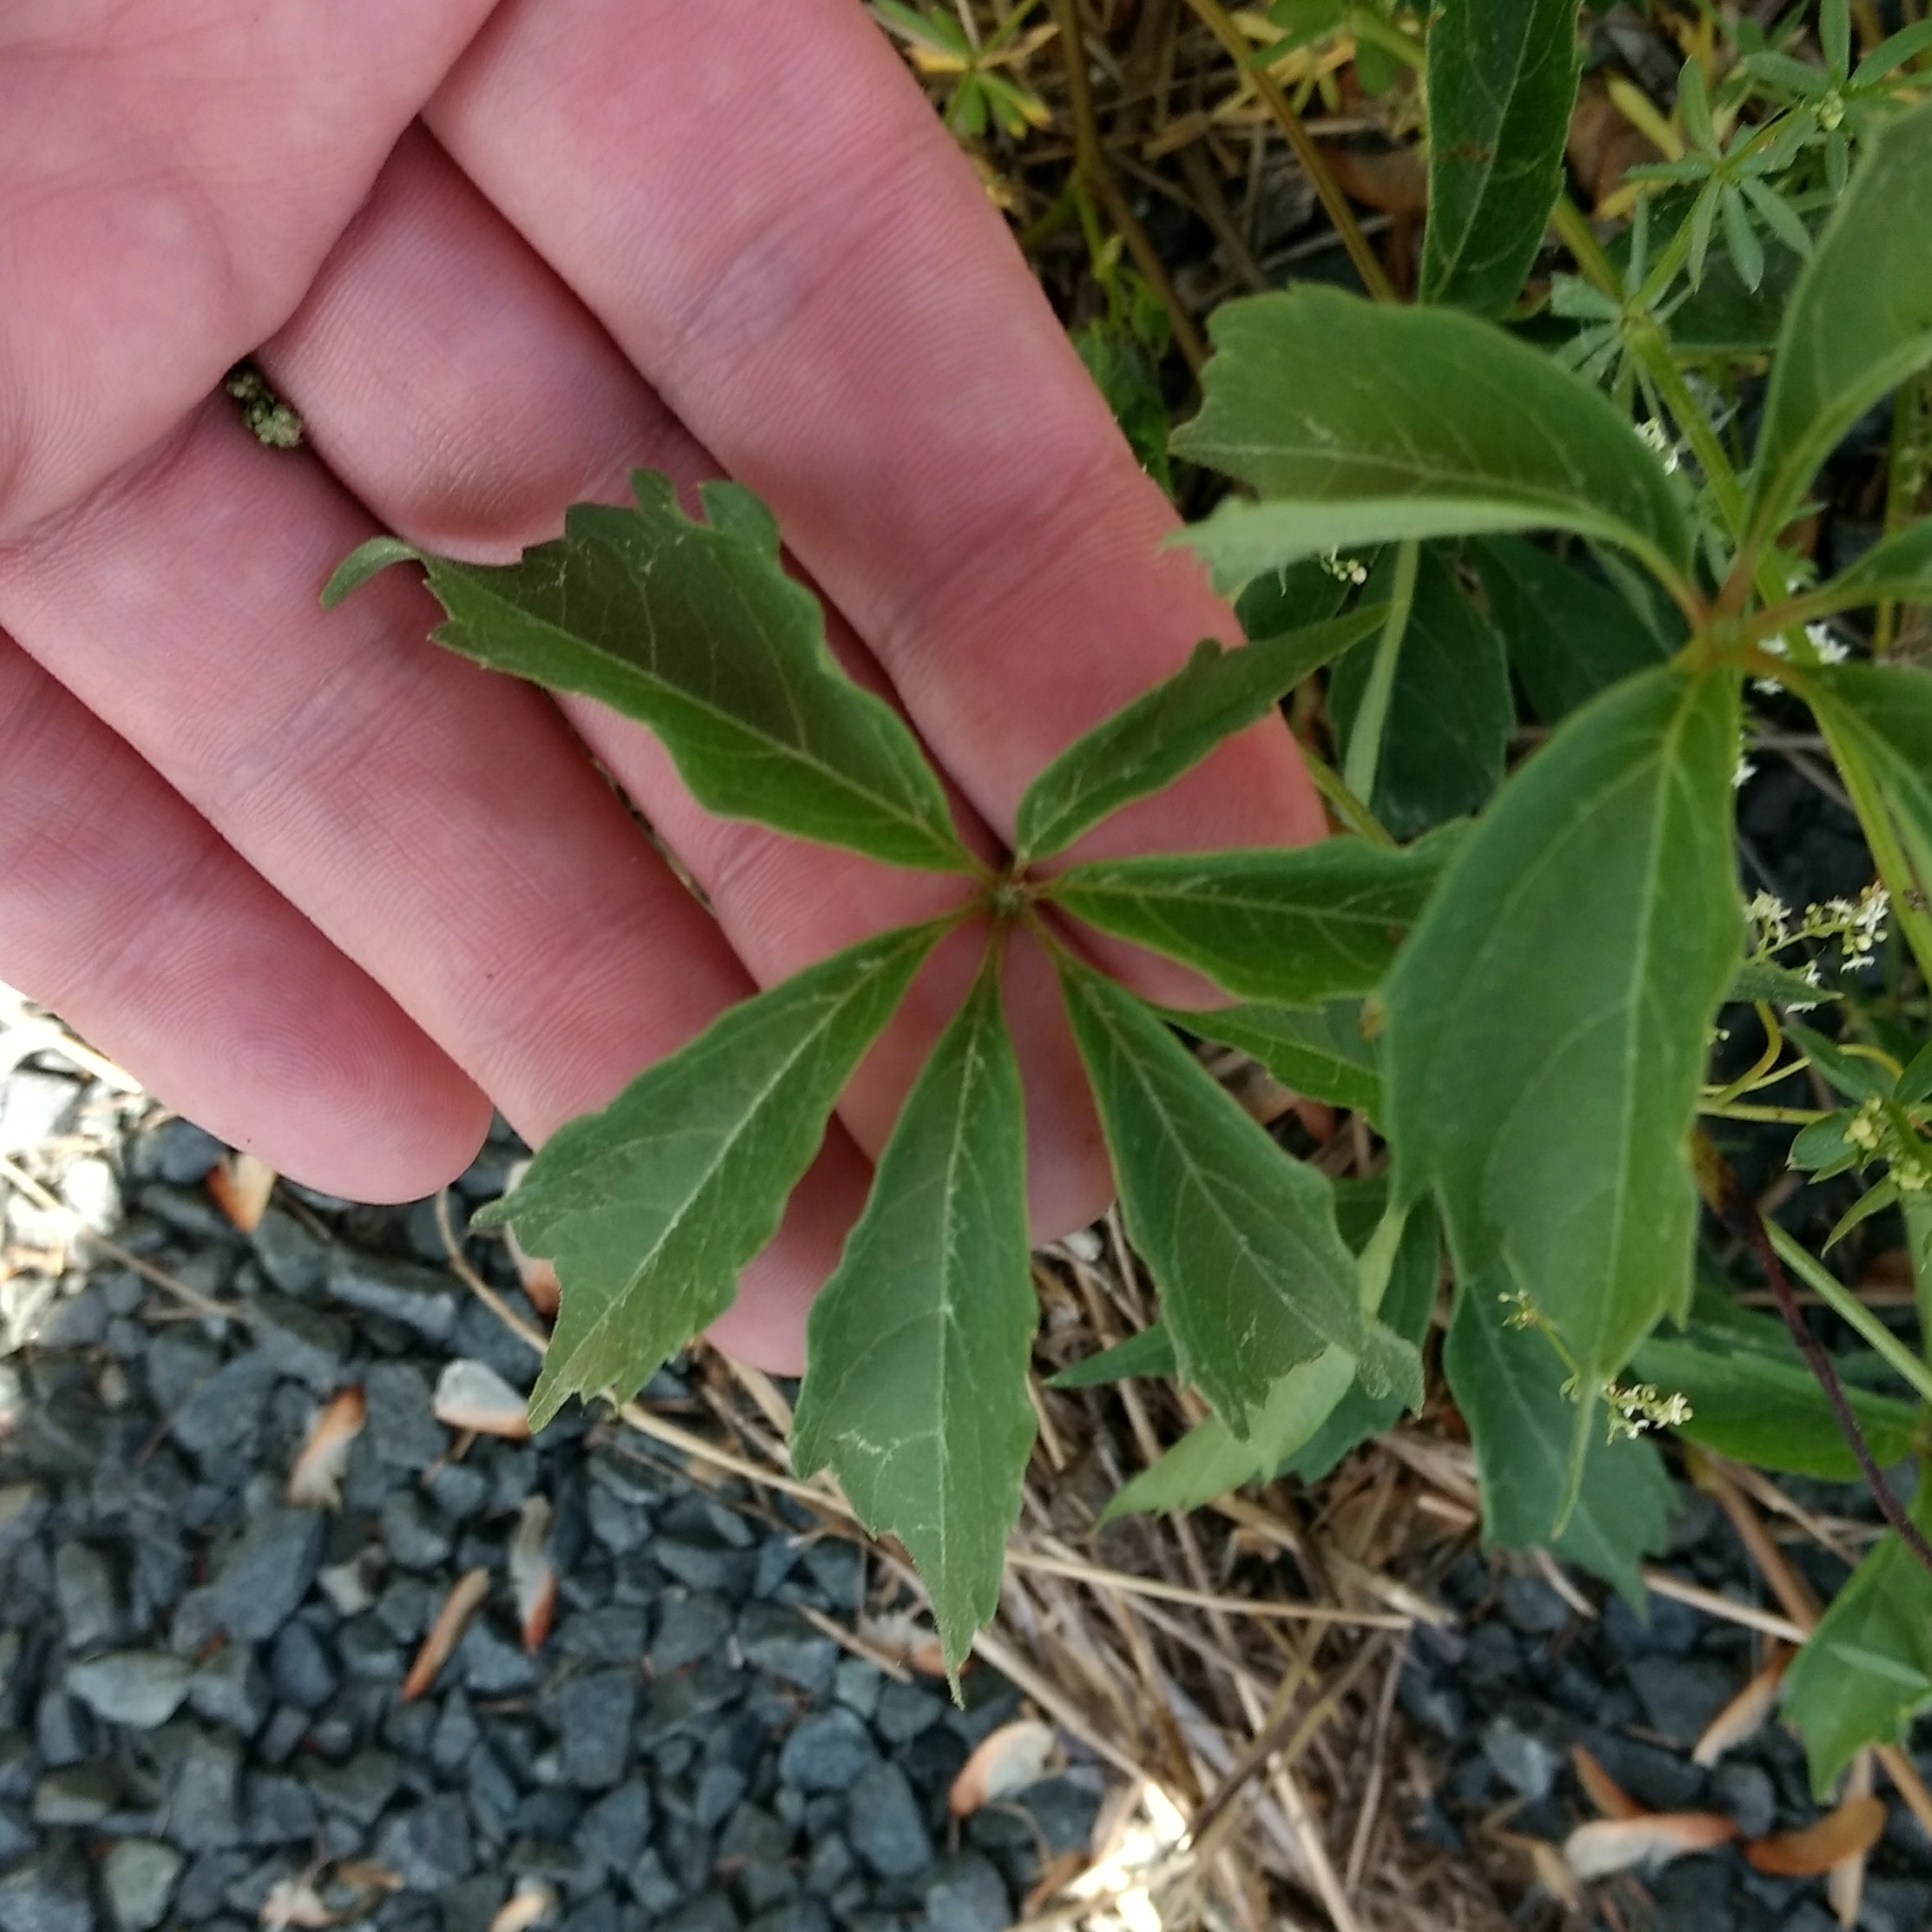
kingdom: Plantae
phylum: Tracheophyta
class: Magnoliopsida
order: Vitales
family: Vitaceae
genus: Parthenocissus
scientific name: Parthenocissus quinquefolia
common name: Virginia-creeper
